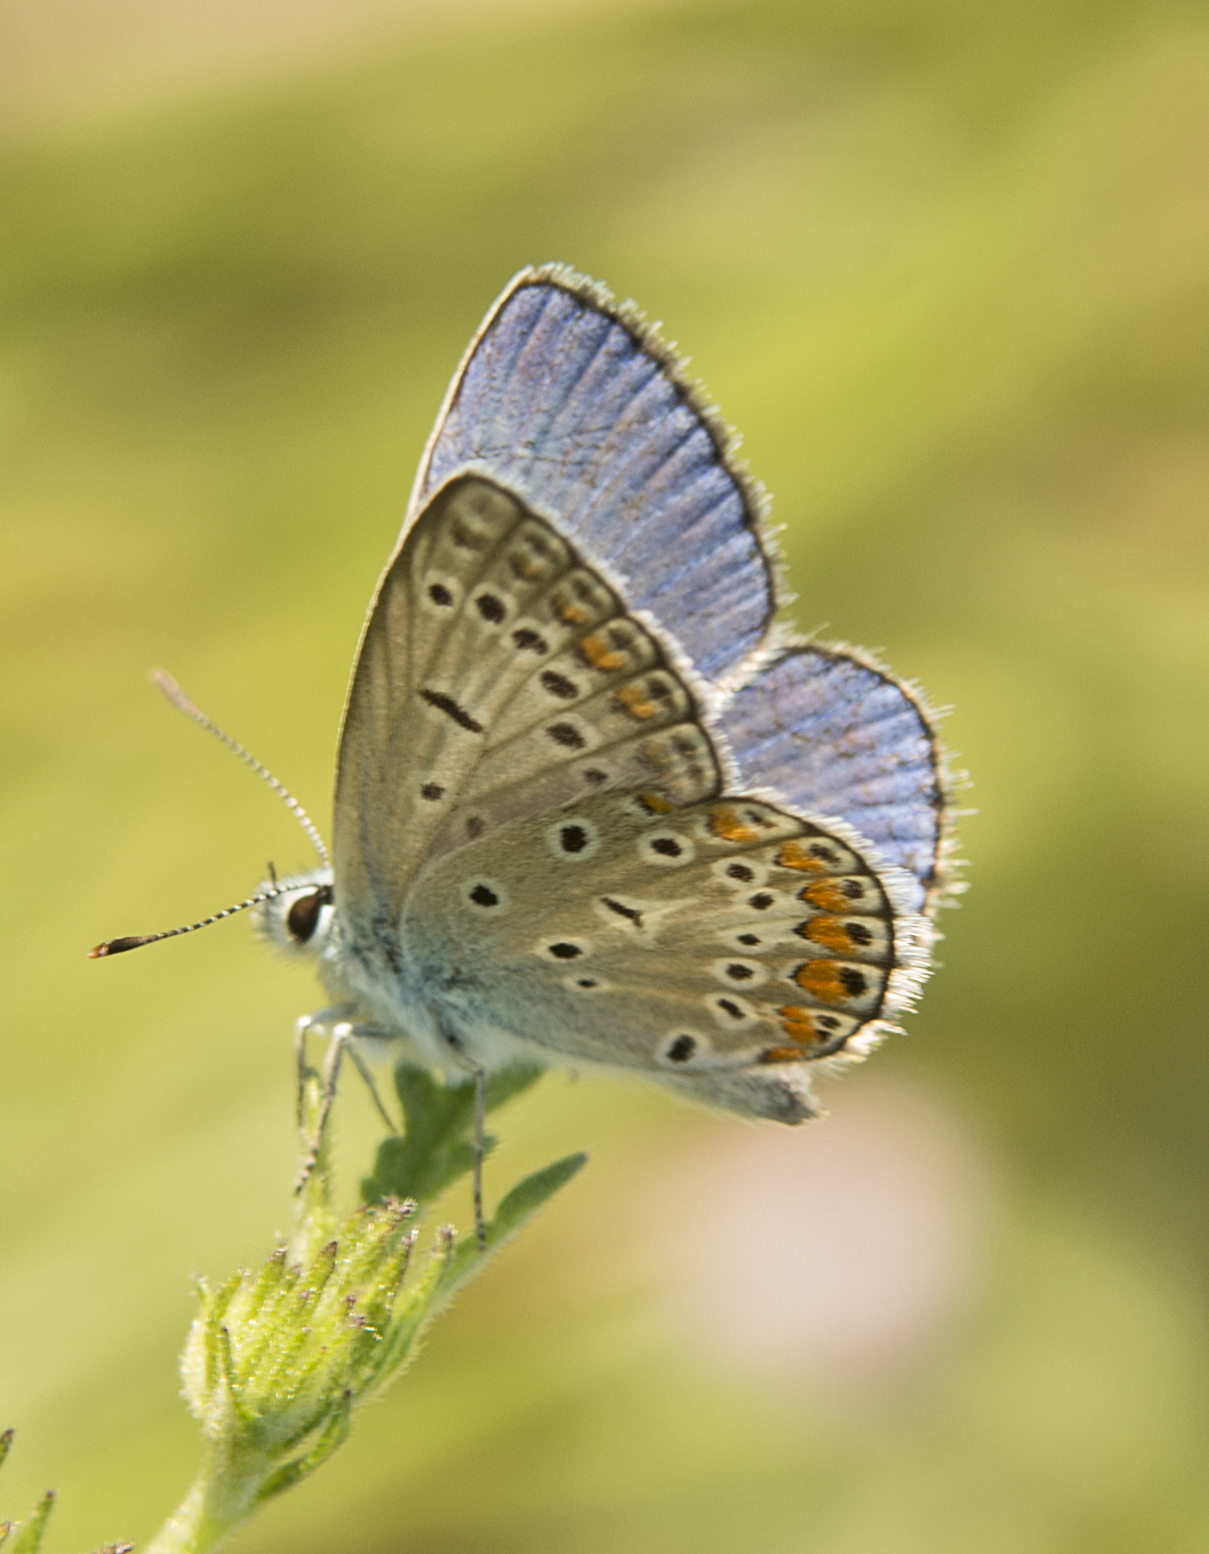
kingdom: Animalia
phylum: Arthropoda
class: Insecta
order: Lepidoptera
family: Lycaenidae
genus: Polyommatus
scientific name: Polyommatus icarus
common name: Common blue
